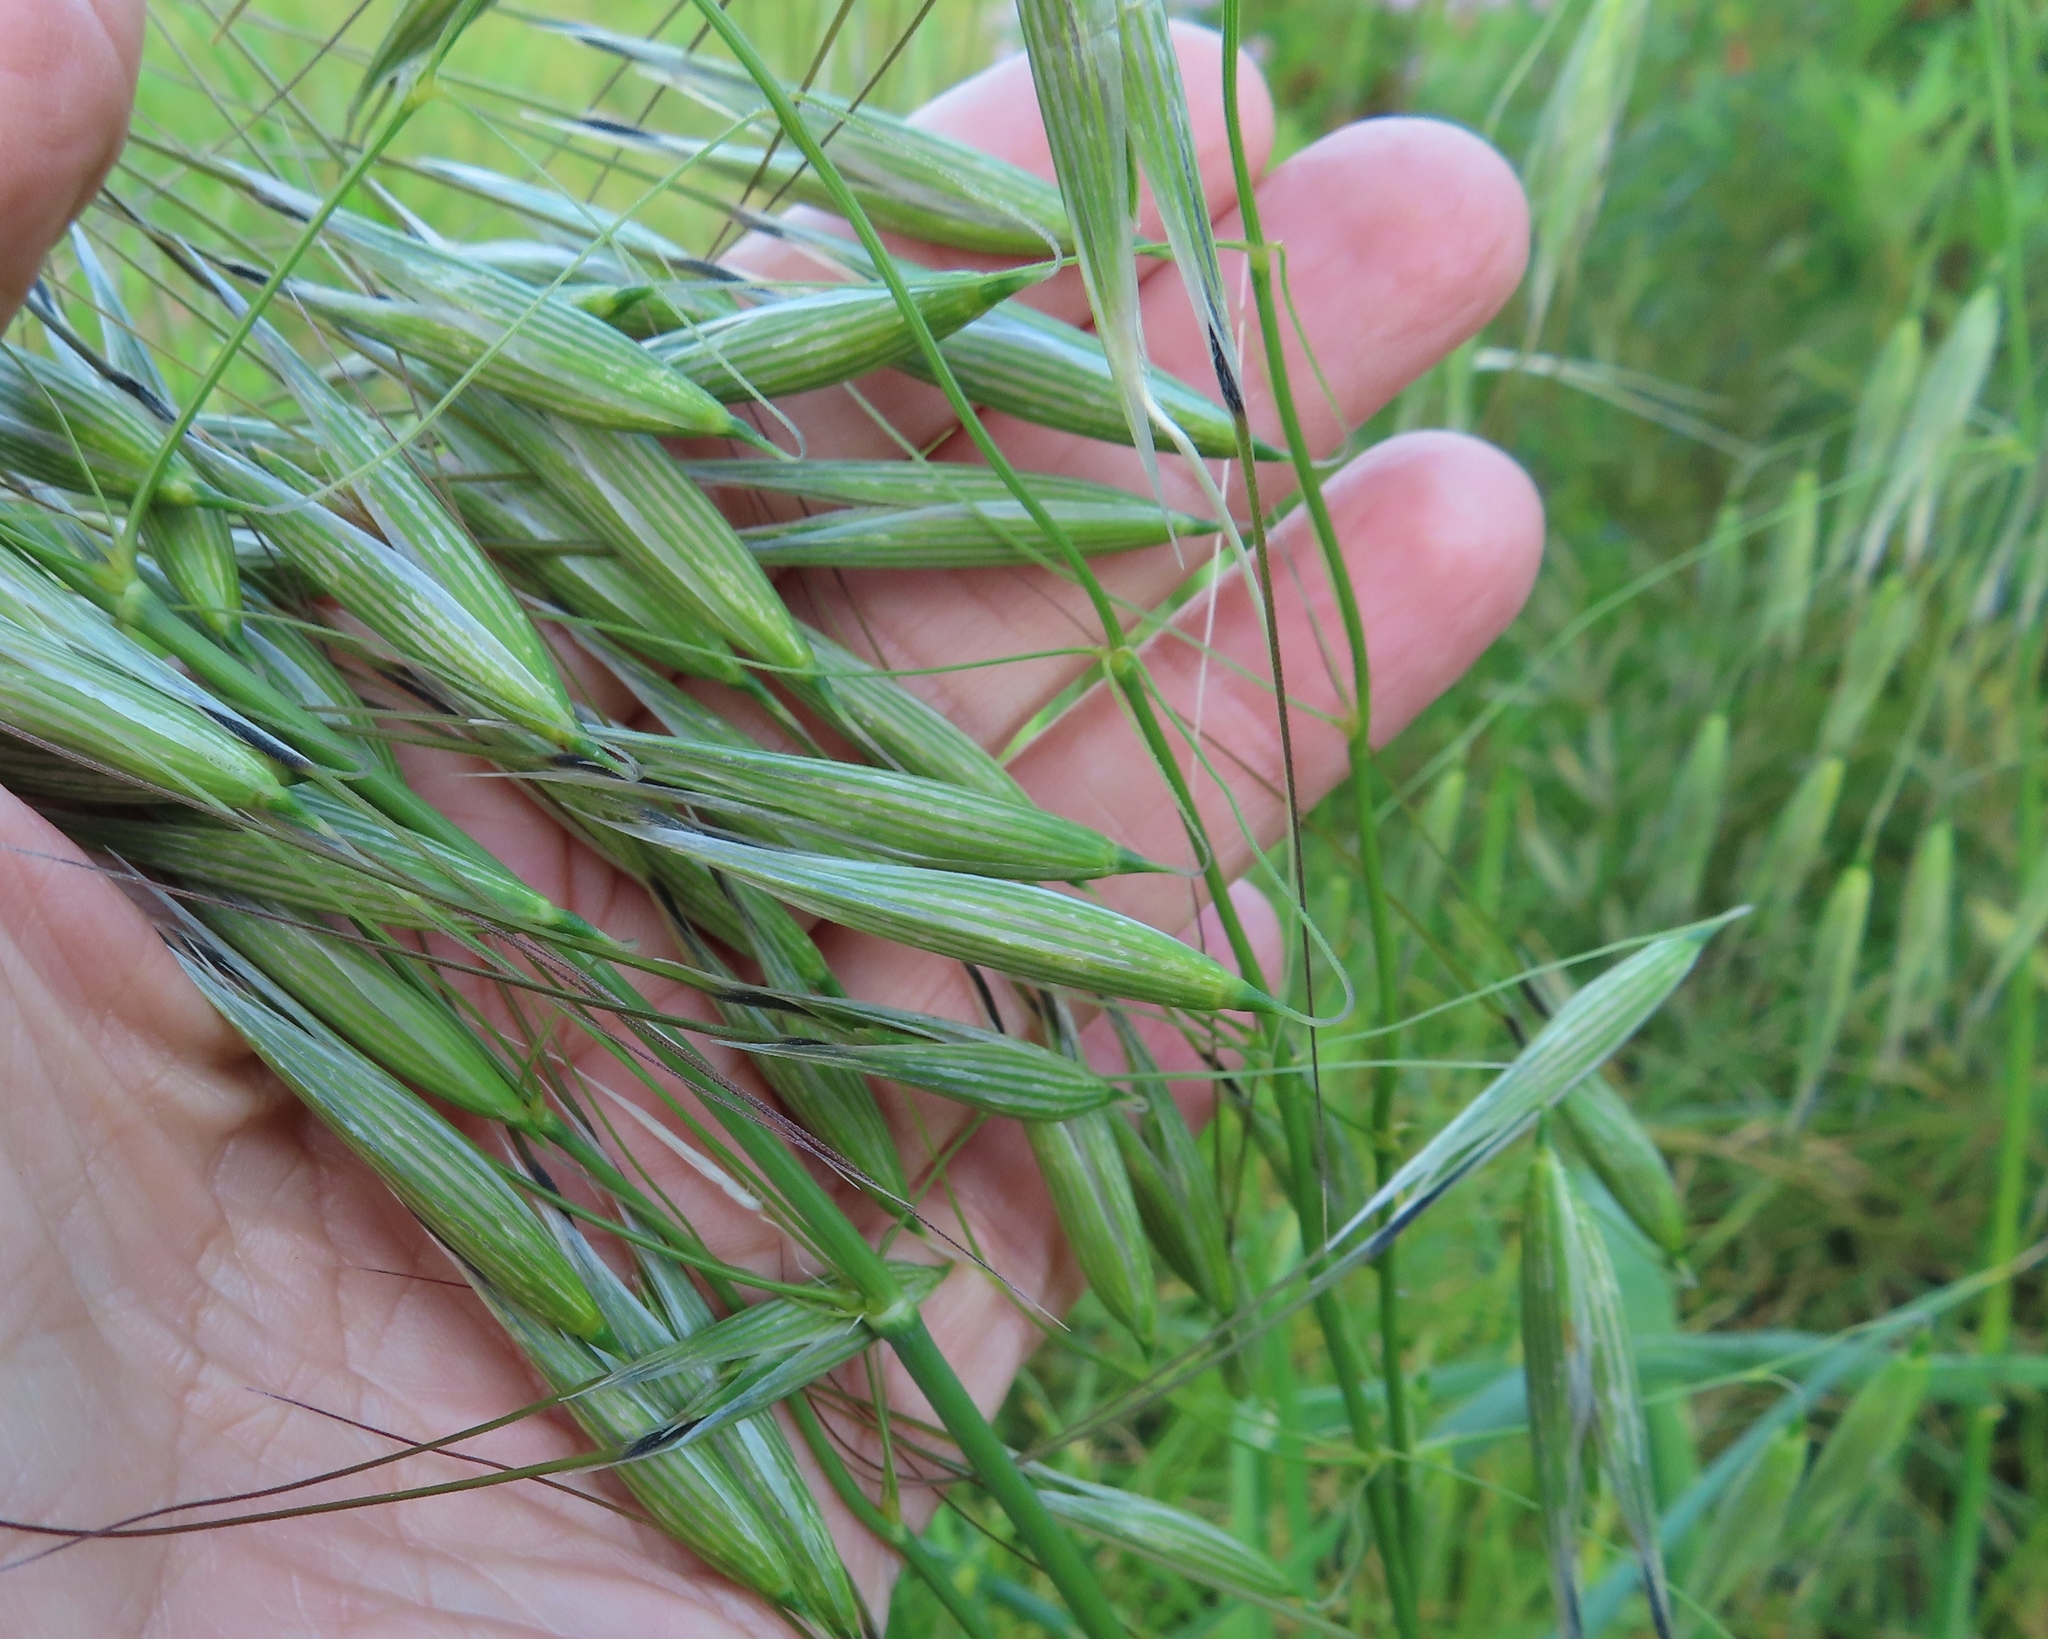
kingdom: Plantae
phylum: Tracheophyta
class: Liliopsida
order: Poales
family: Poaceae
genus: Avena
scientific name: Avena fatua
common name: Wild oat
